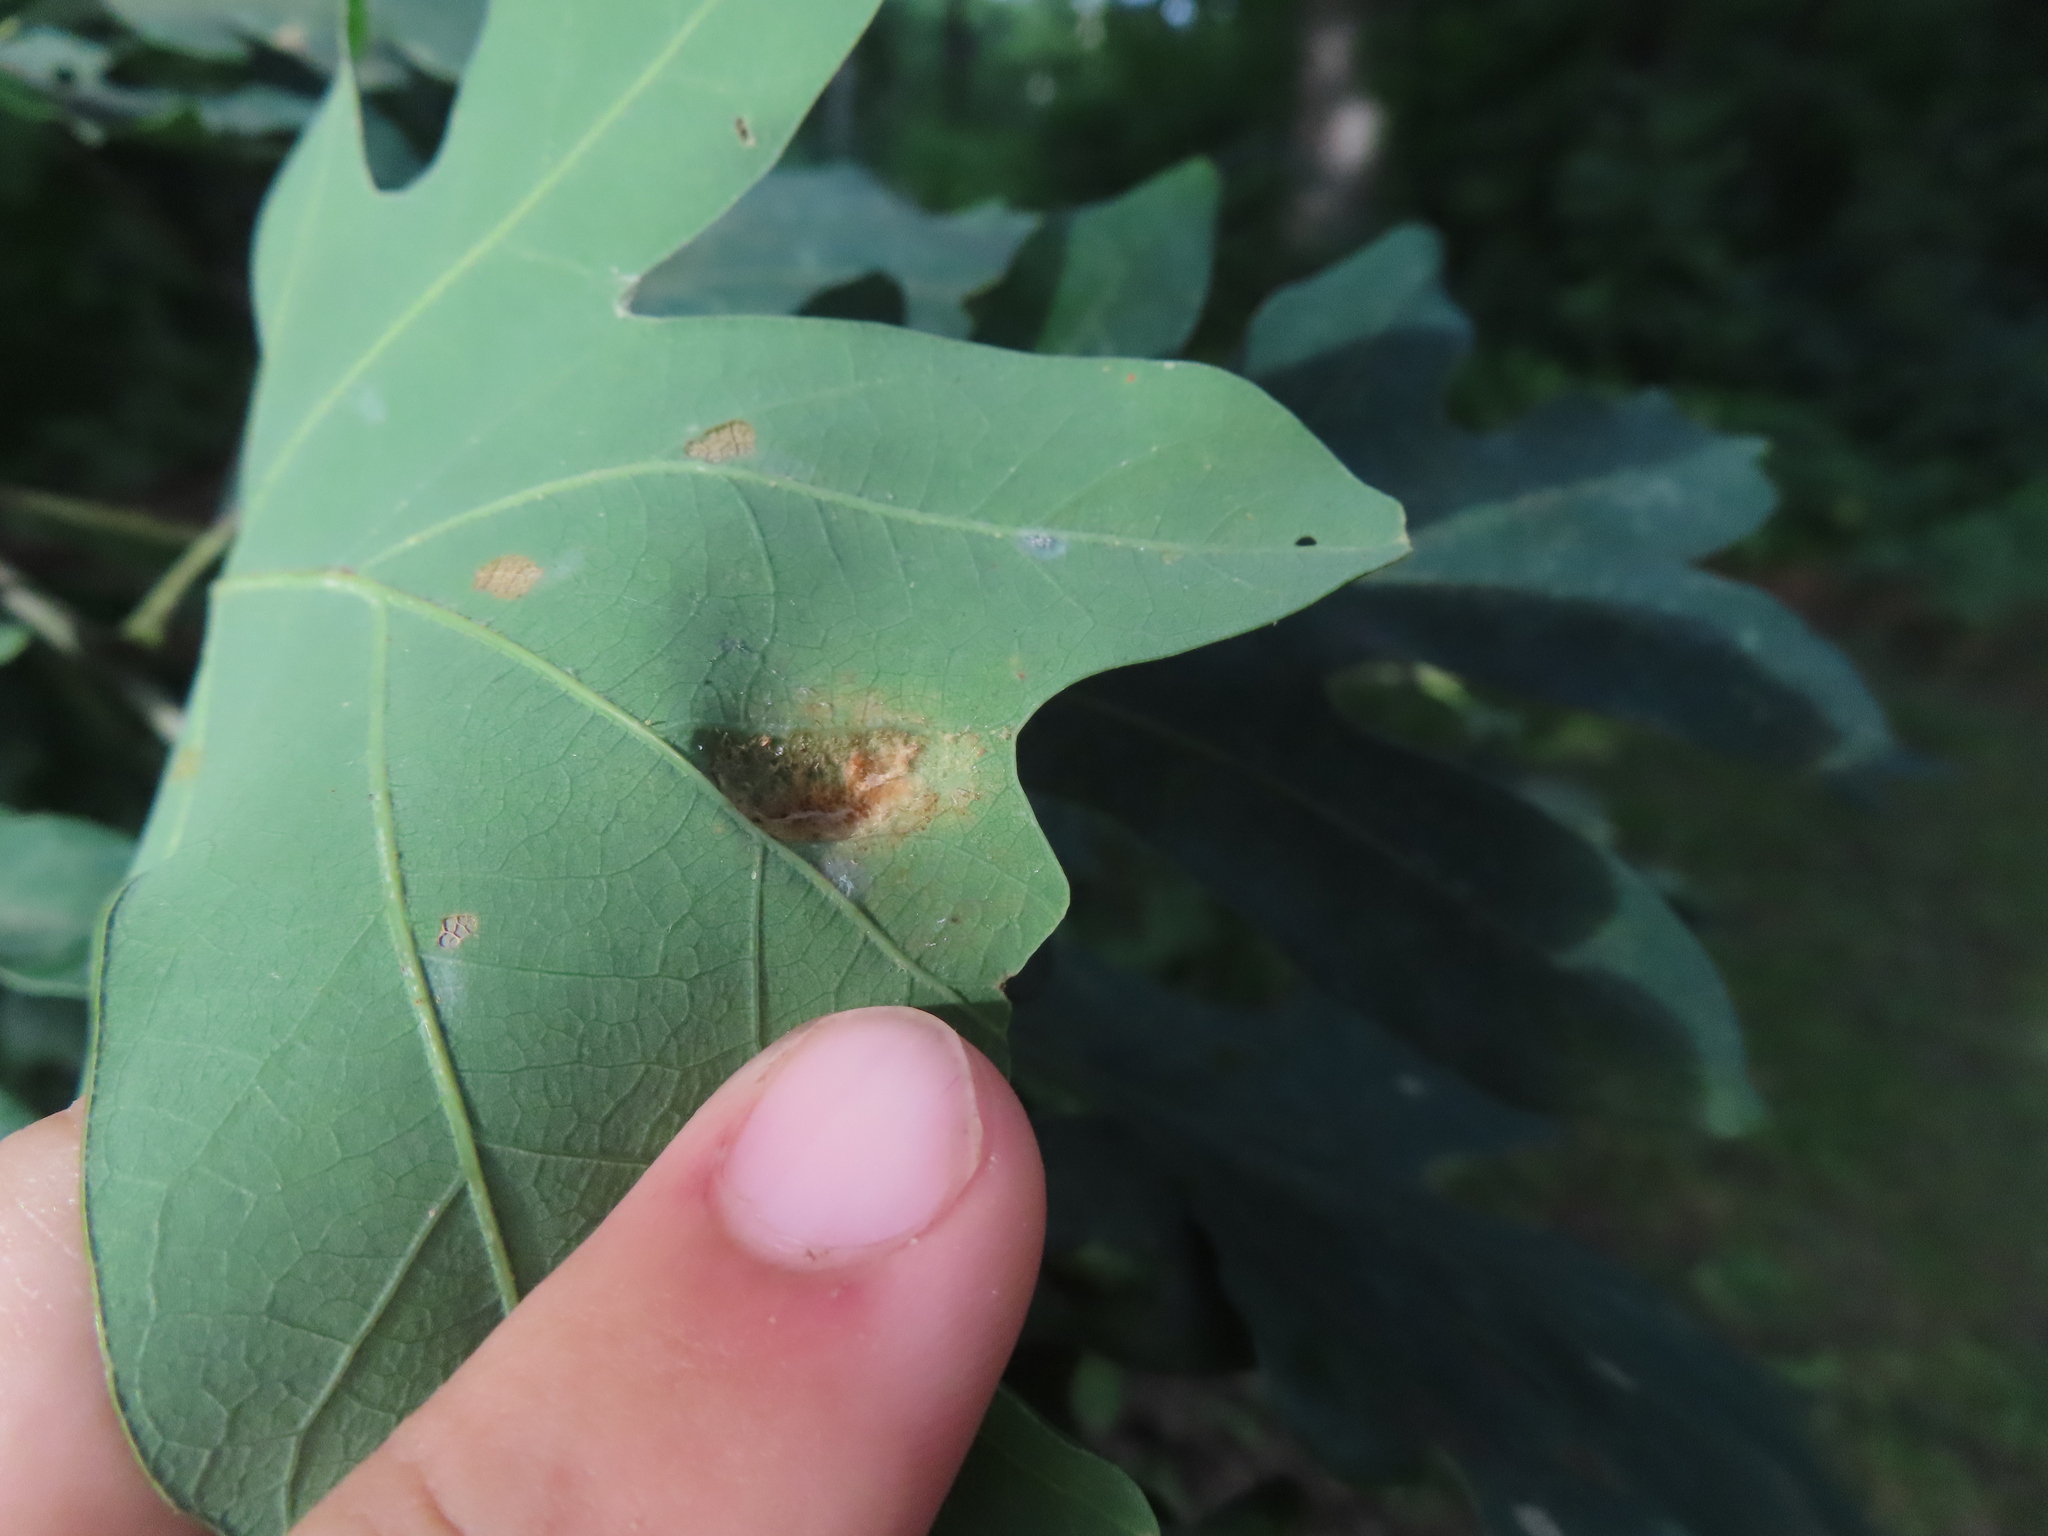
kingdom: Animalia
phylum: Arthropoda
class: Arachnida
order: Trombidiformes
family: Eriophyidae
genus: Aceria
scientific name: Aceria
